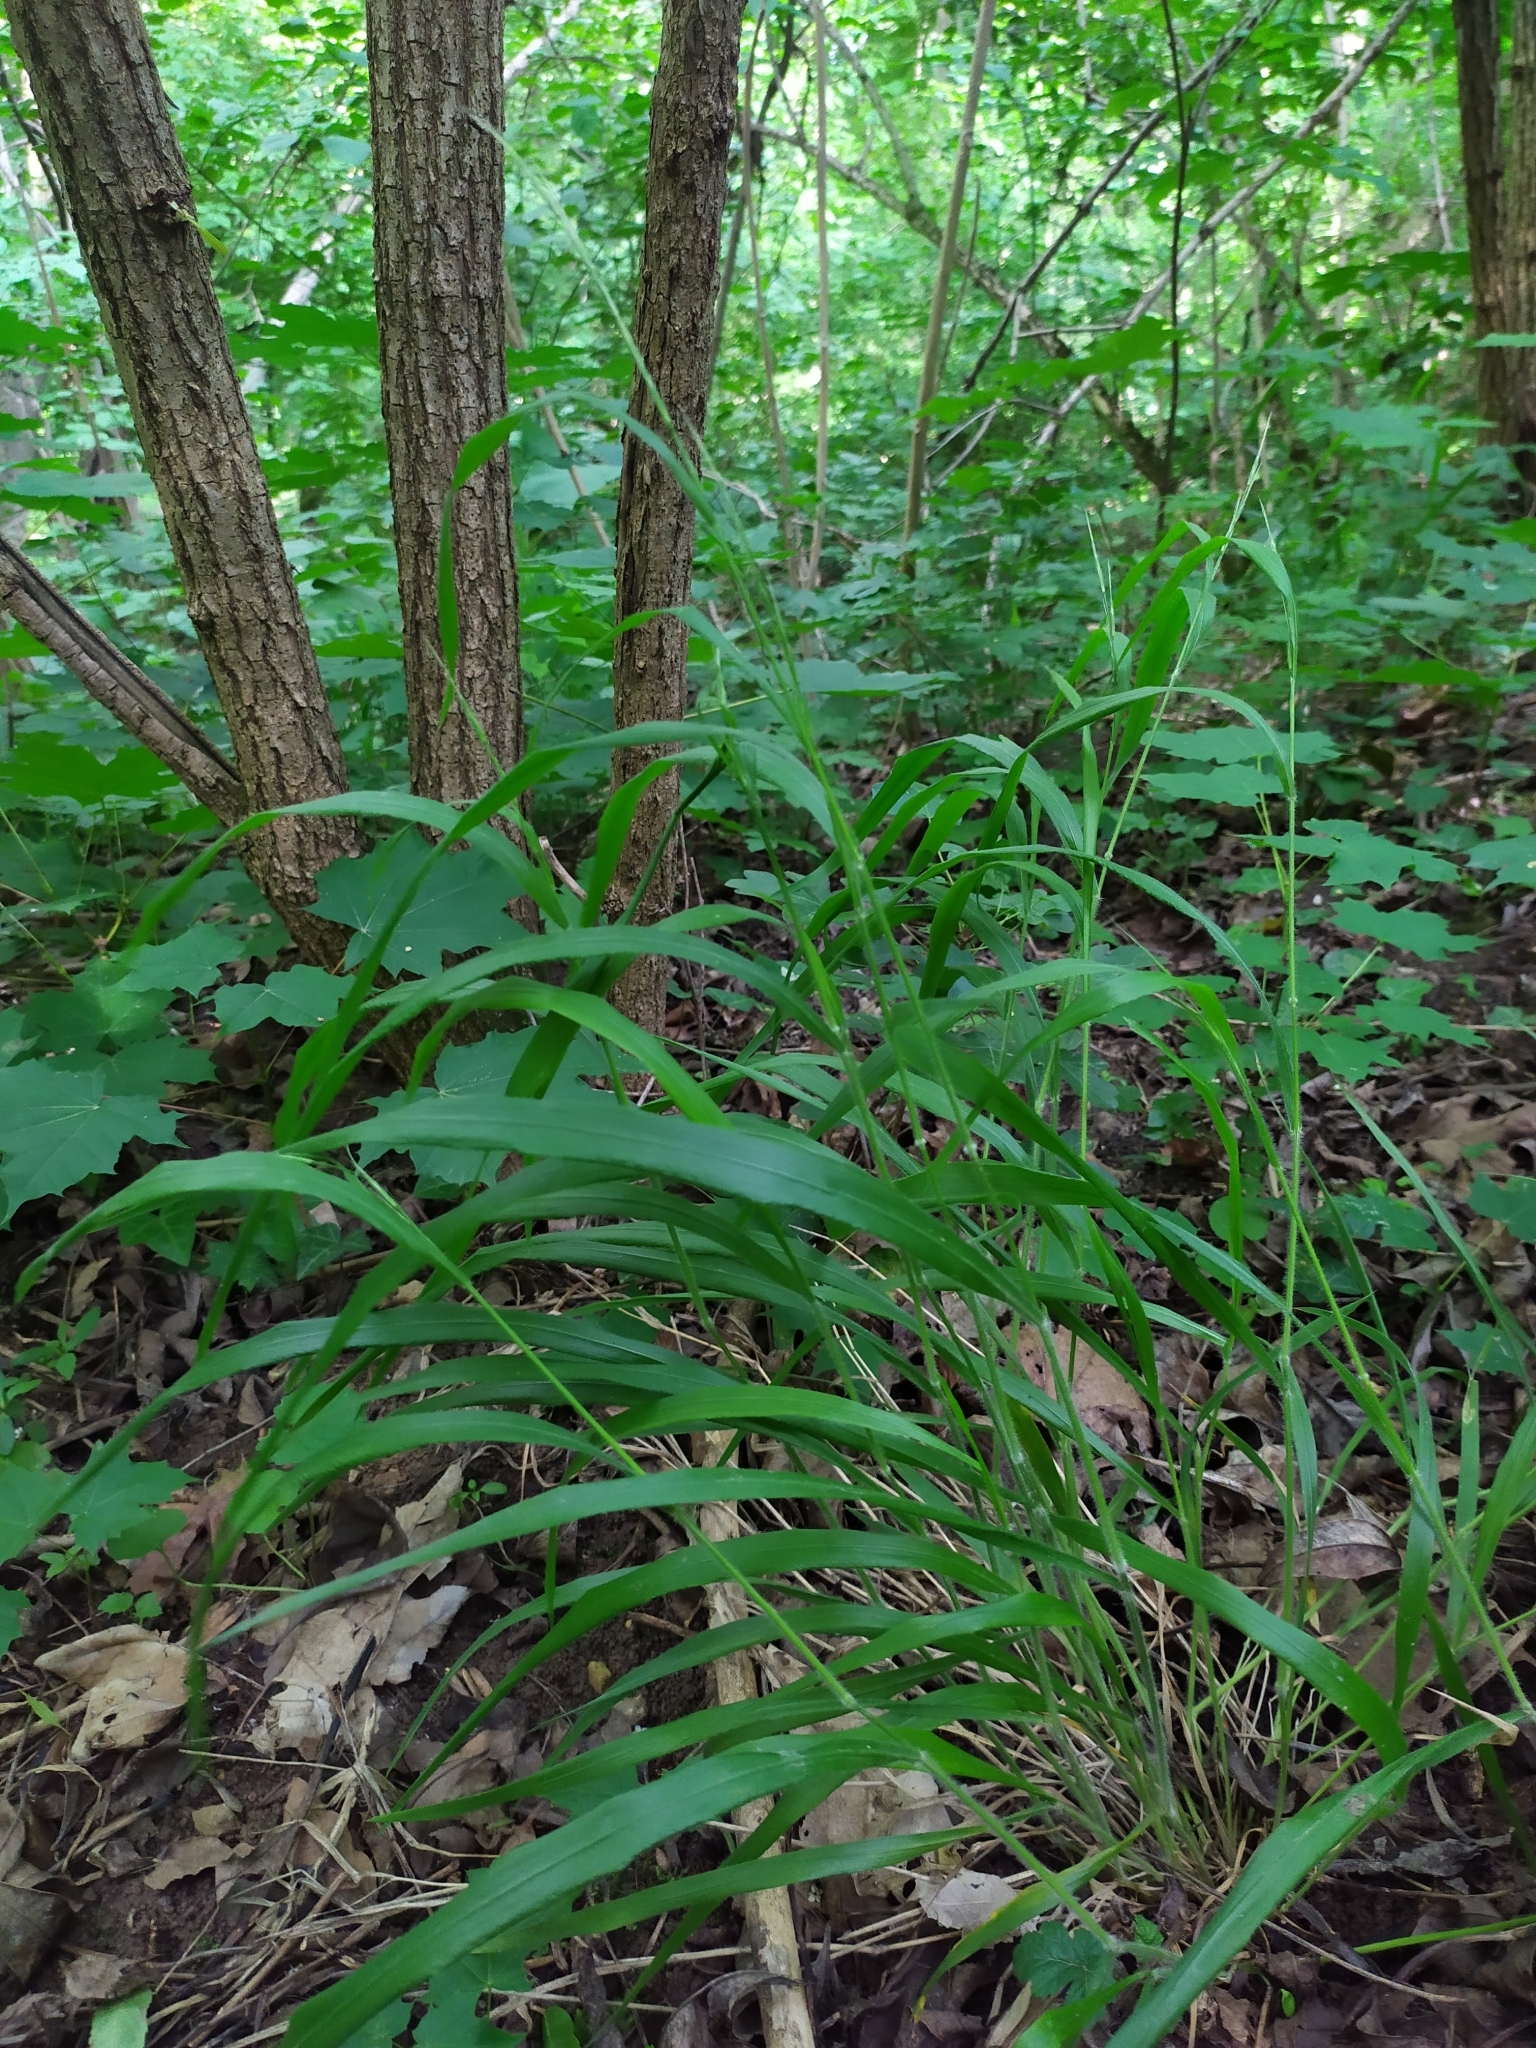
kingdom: Plantae
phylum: Tracheophyta
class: Liliopsida
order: Poales
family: Poaceae
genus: Brachypodium
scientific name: Brachypodium sylvaticum
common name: False-brome
